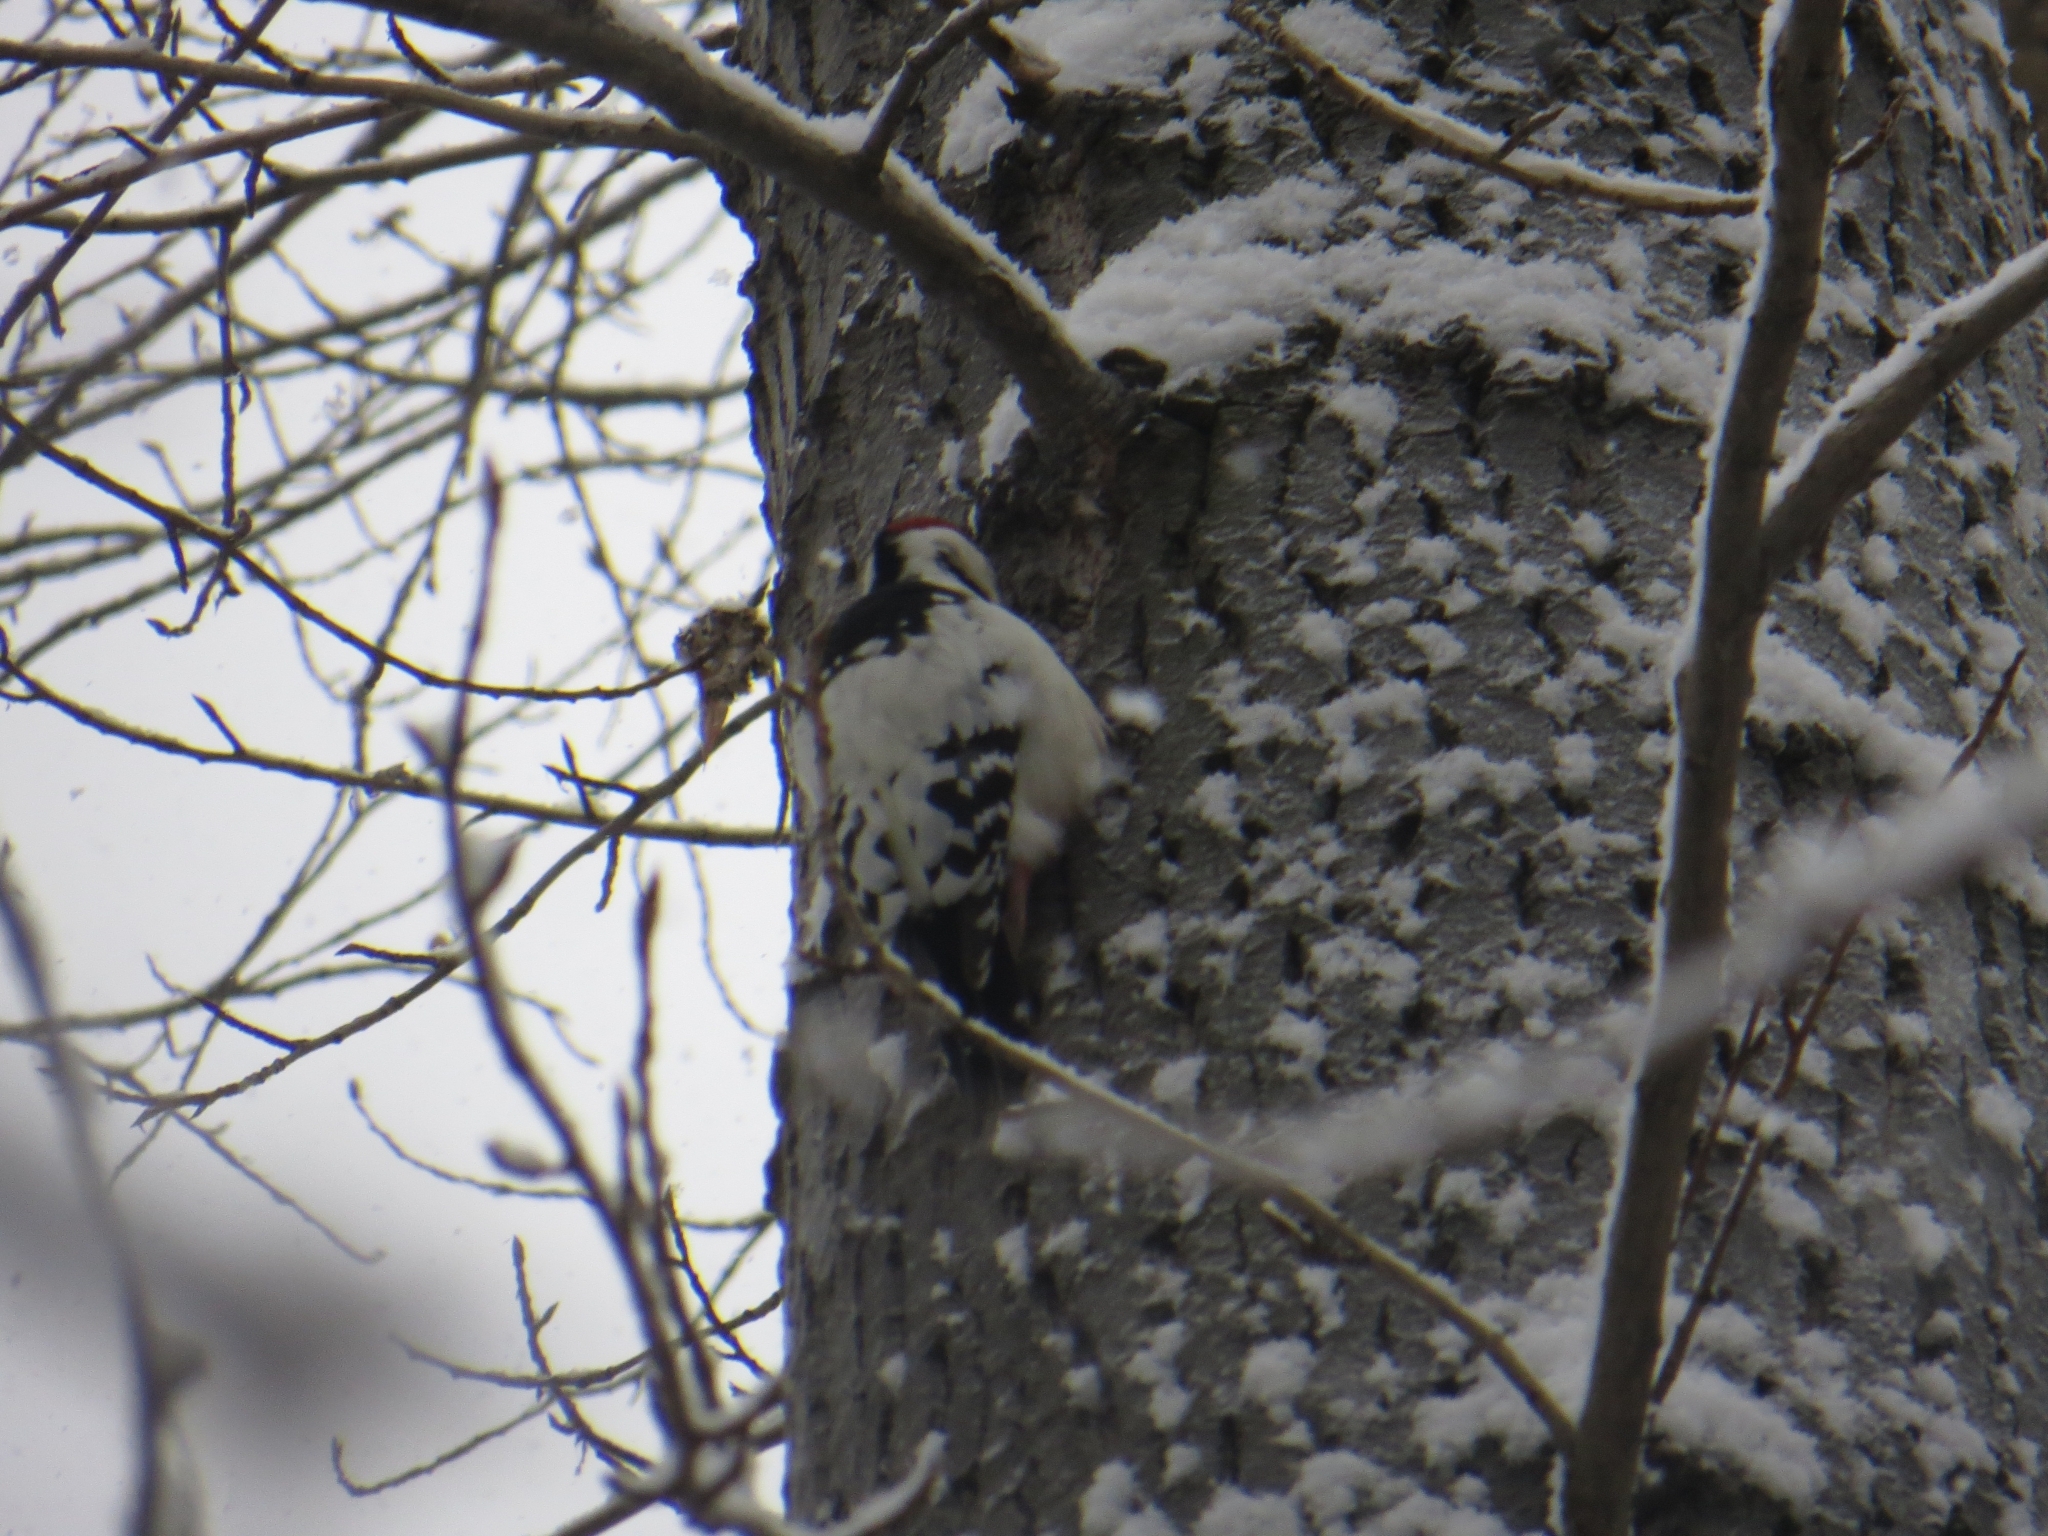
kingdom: Animalia
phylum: Chordata
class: Aves
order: Piciformes
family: Picidae
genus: Dendrocopos
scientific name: Dendrocopos leucotos
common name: White-backed woodpecker
